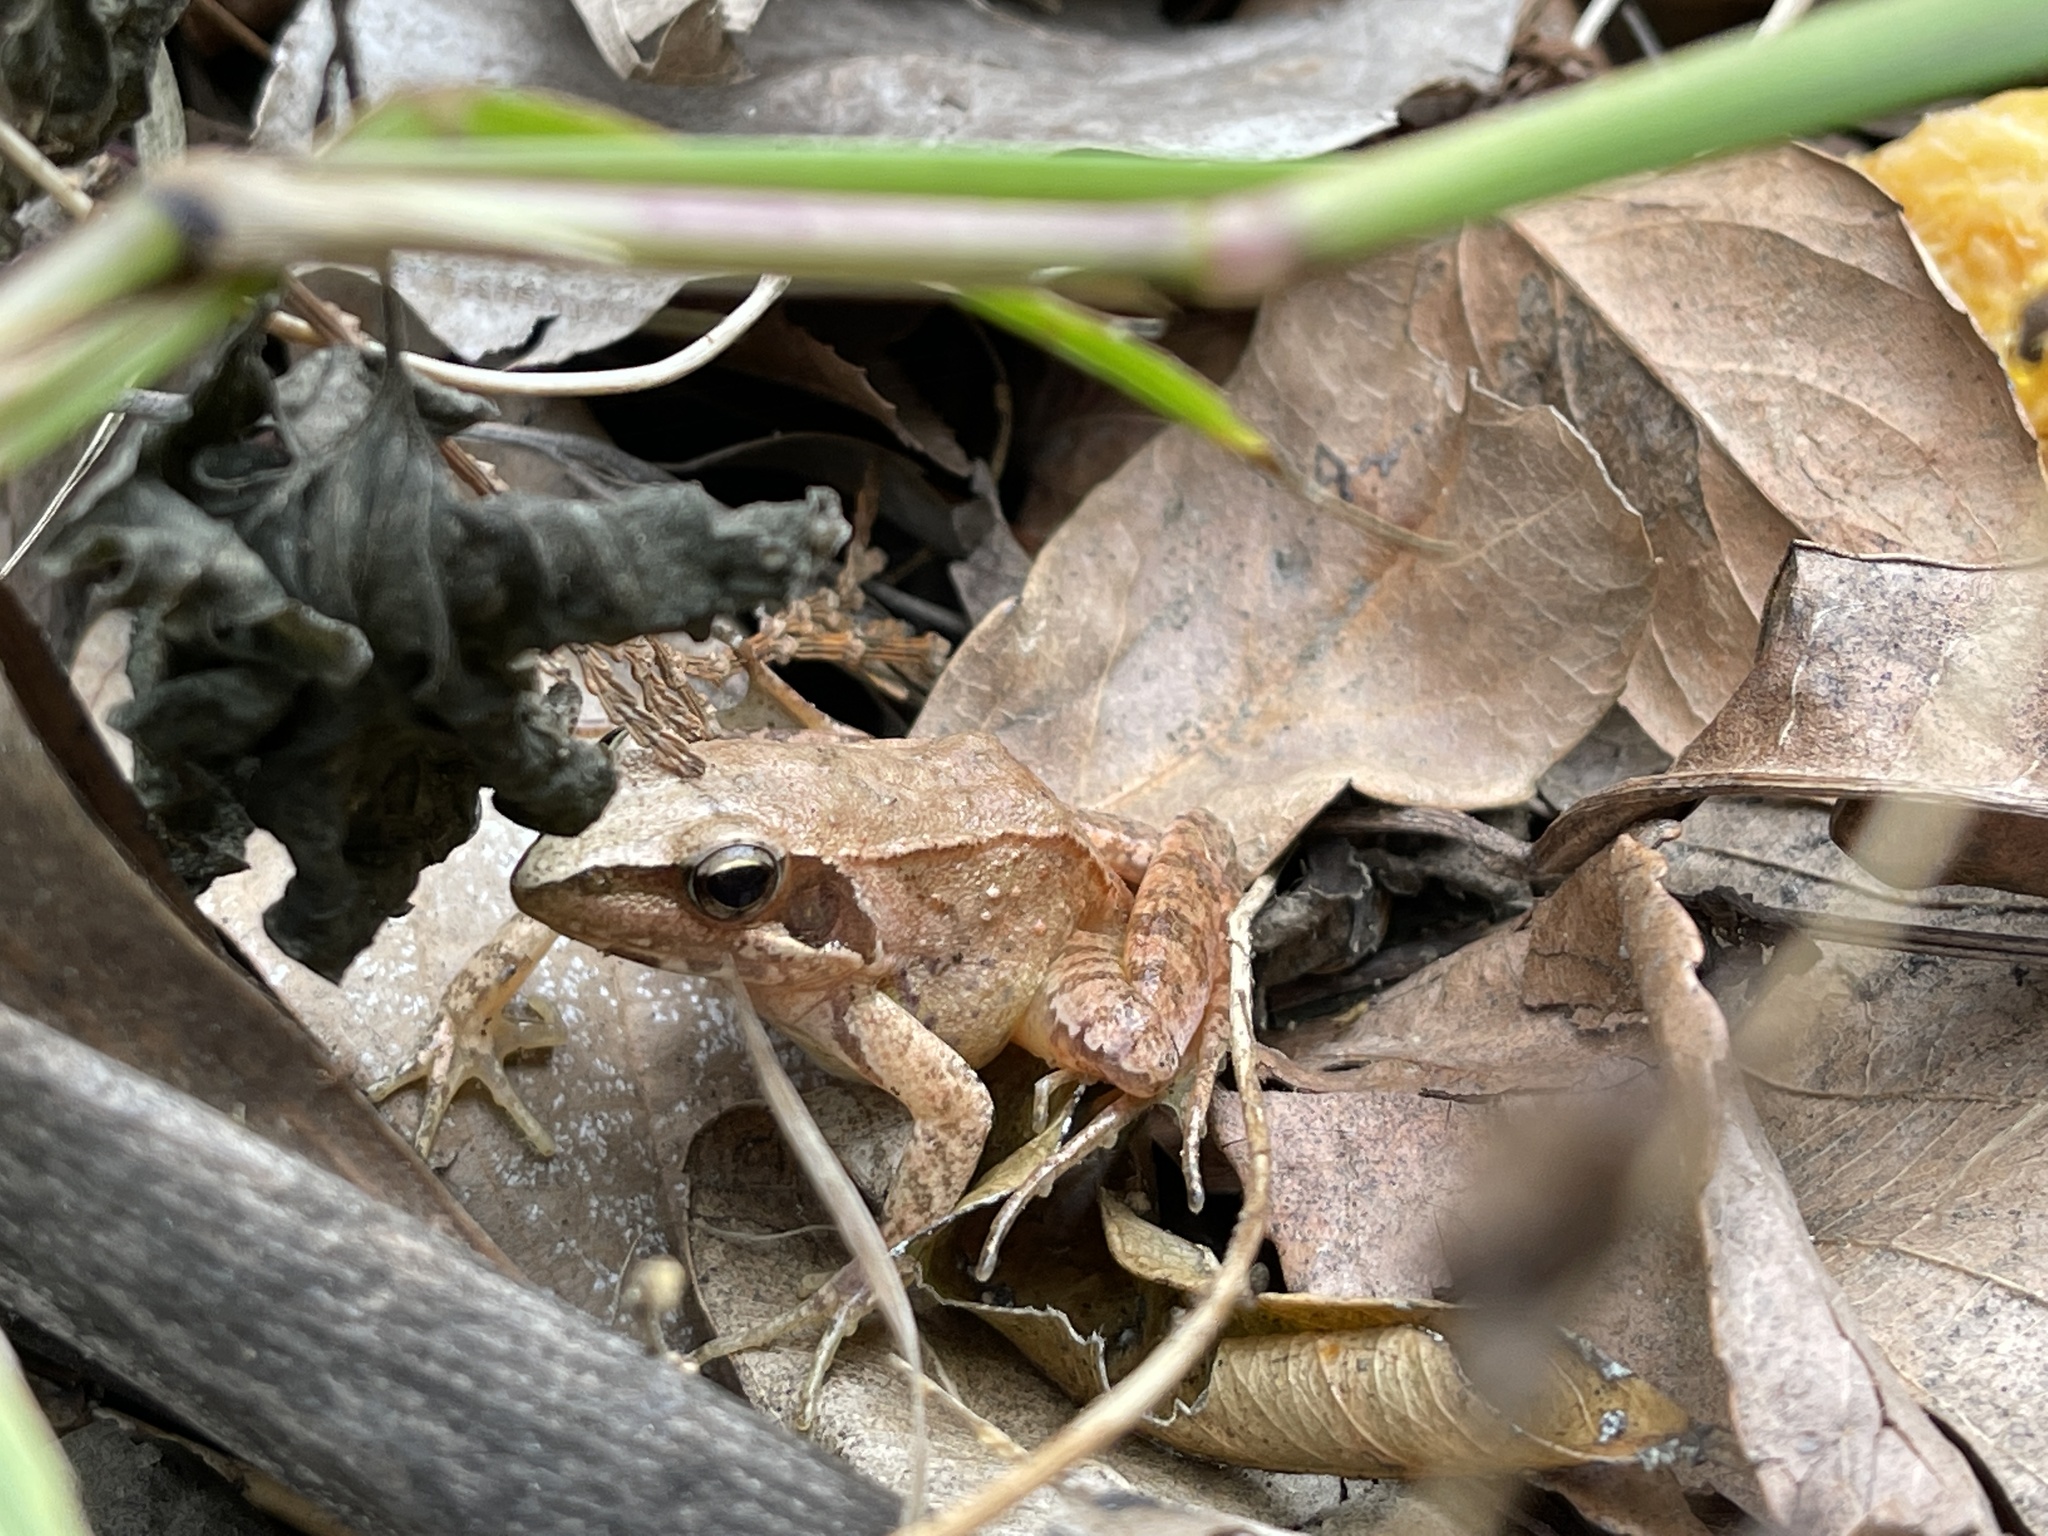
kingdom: Animalia
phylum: Chordata
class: Amphibia
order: Anura
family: Ranidae
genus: Rana
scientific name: Rana longicrus
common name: Long-legged brown frog
